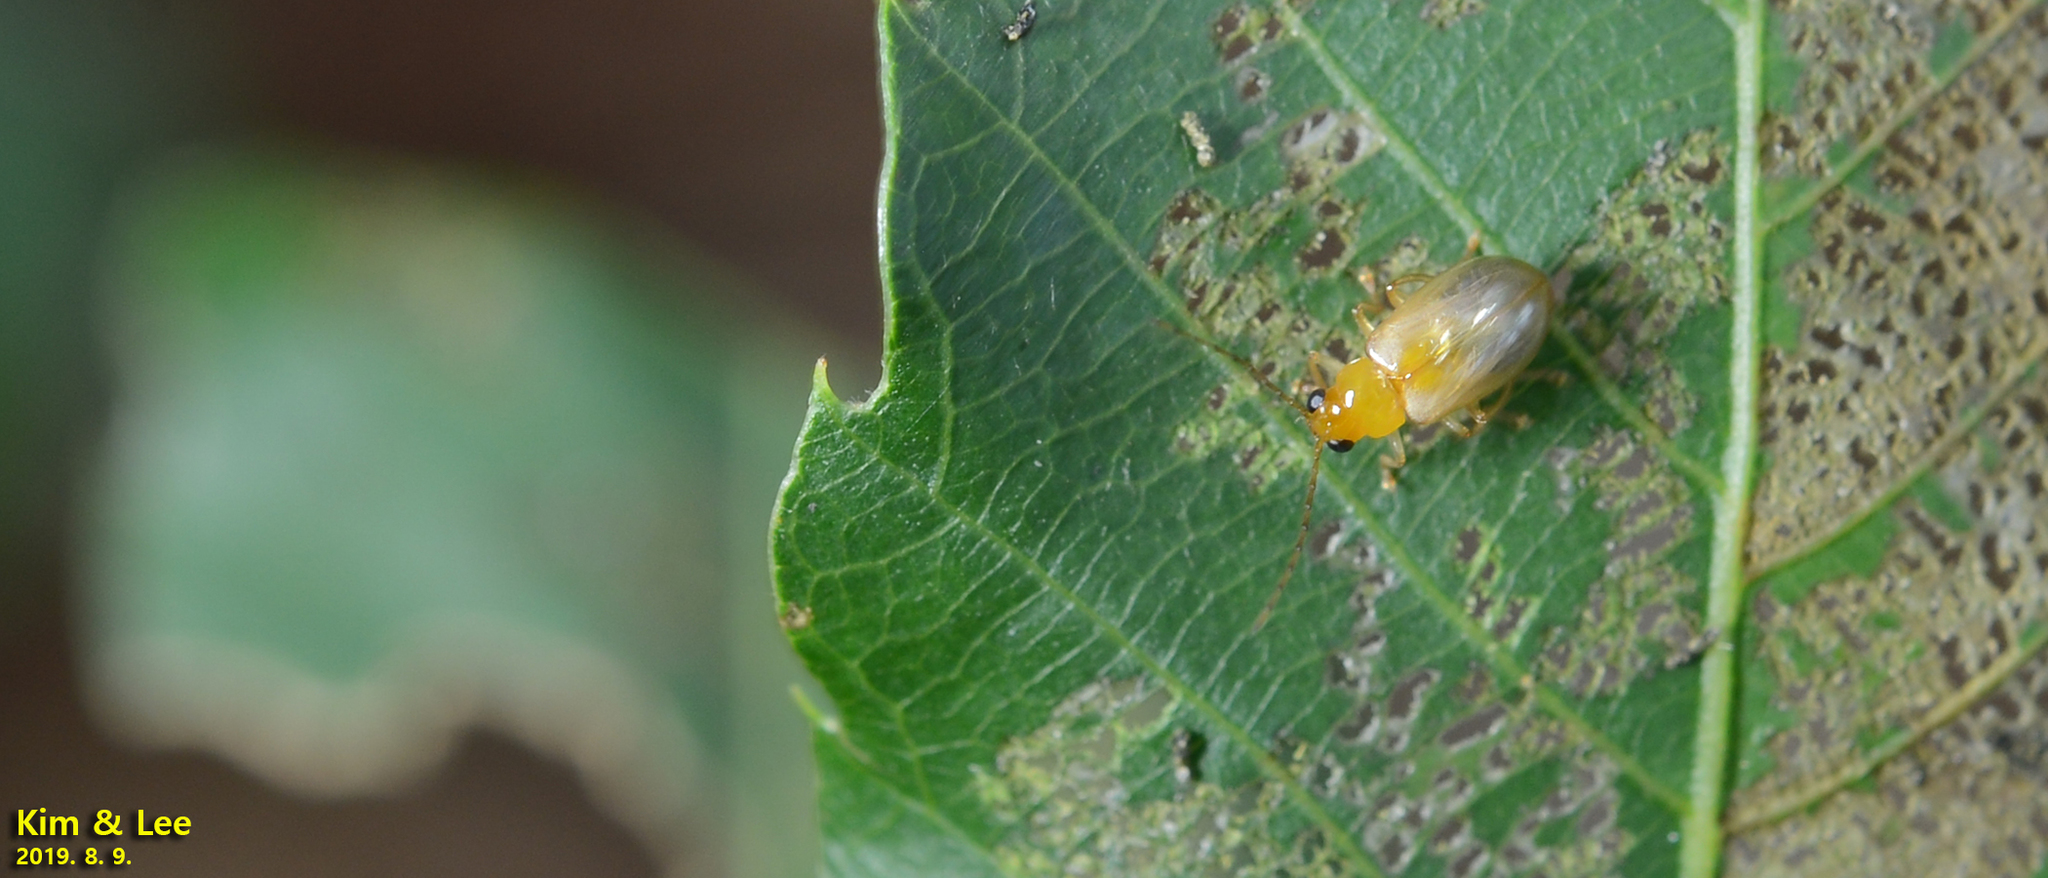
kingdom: Animalia
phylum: Arthropoda
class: Insecta
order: Coleoptera
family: Chrysomelidae
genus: Monolepta
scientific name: Monolepta shirozui
